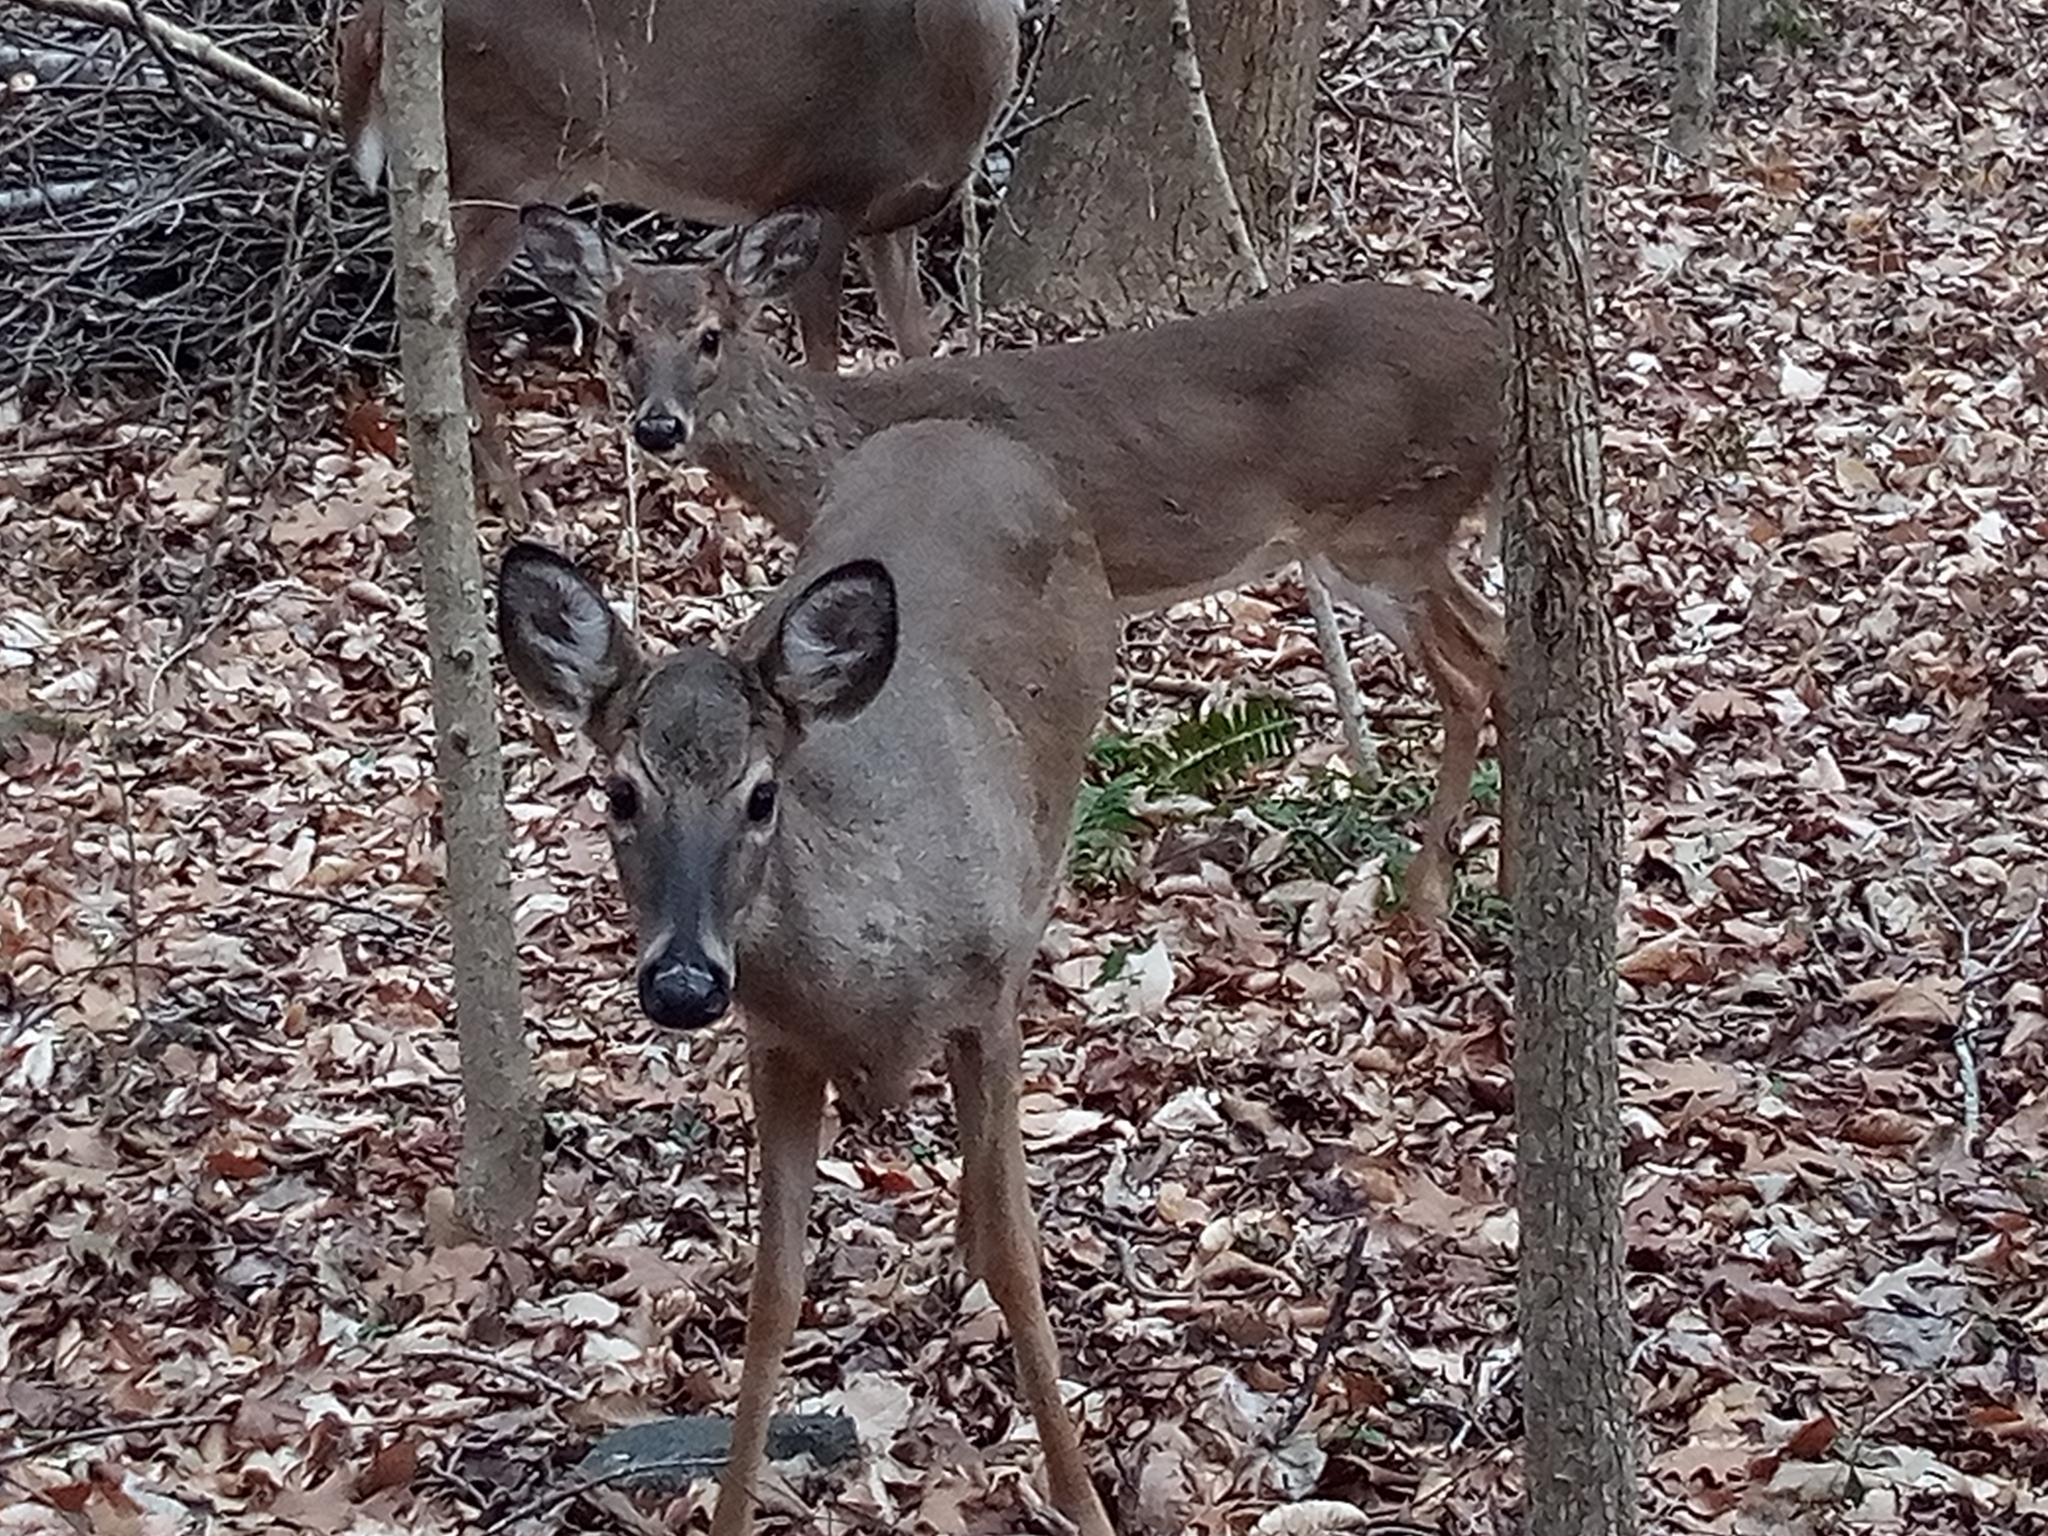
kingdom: Animalia
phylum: Chordata
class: Mammalia
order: Artiodactyla
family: Cervidae
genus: Odocoileus
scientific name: Odocoileus virginianus
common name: White-tailed deer
